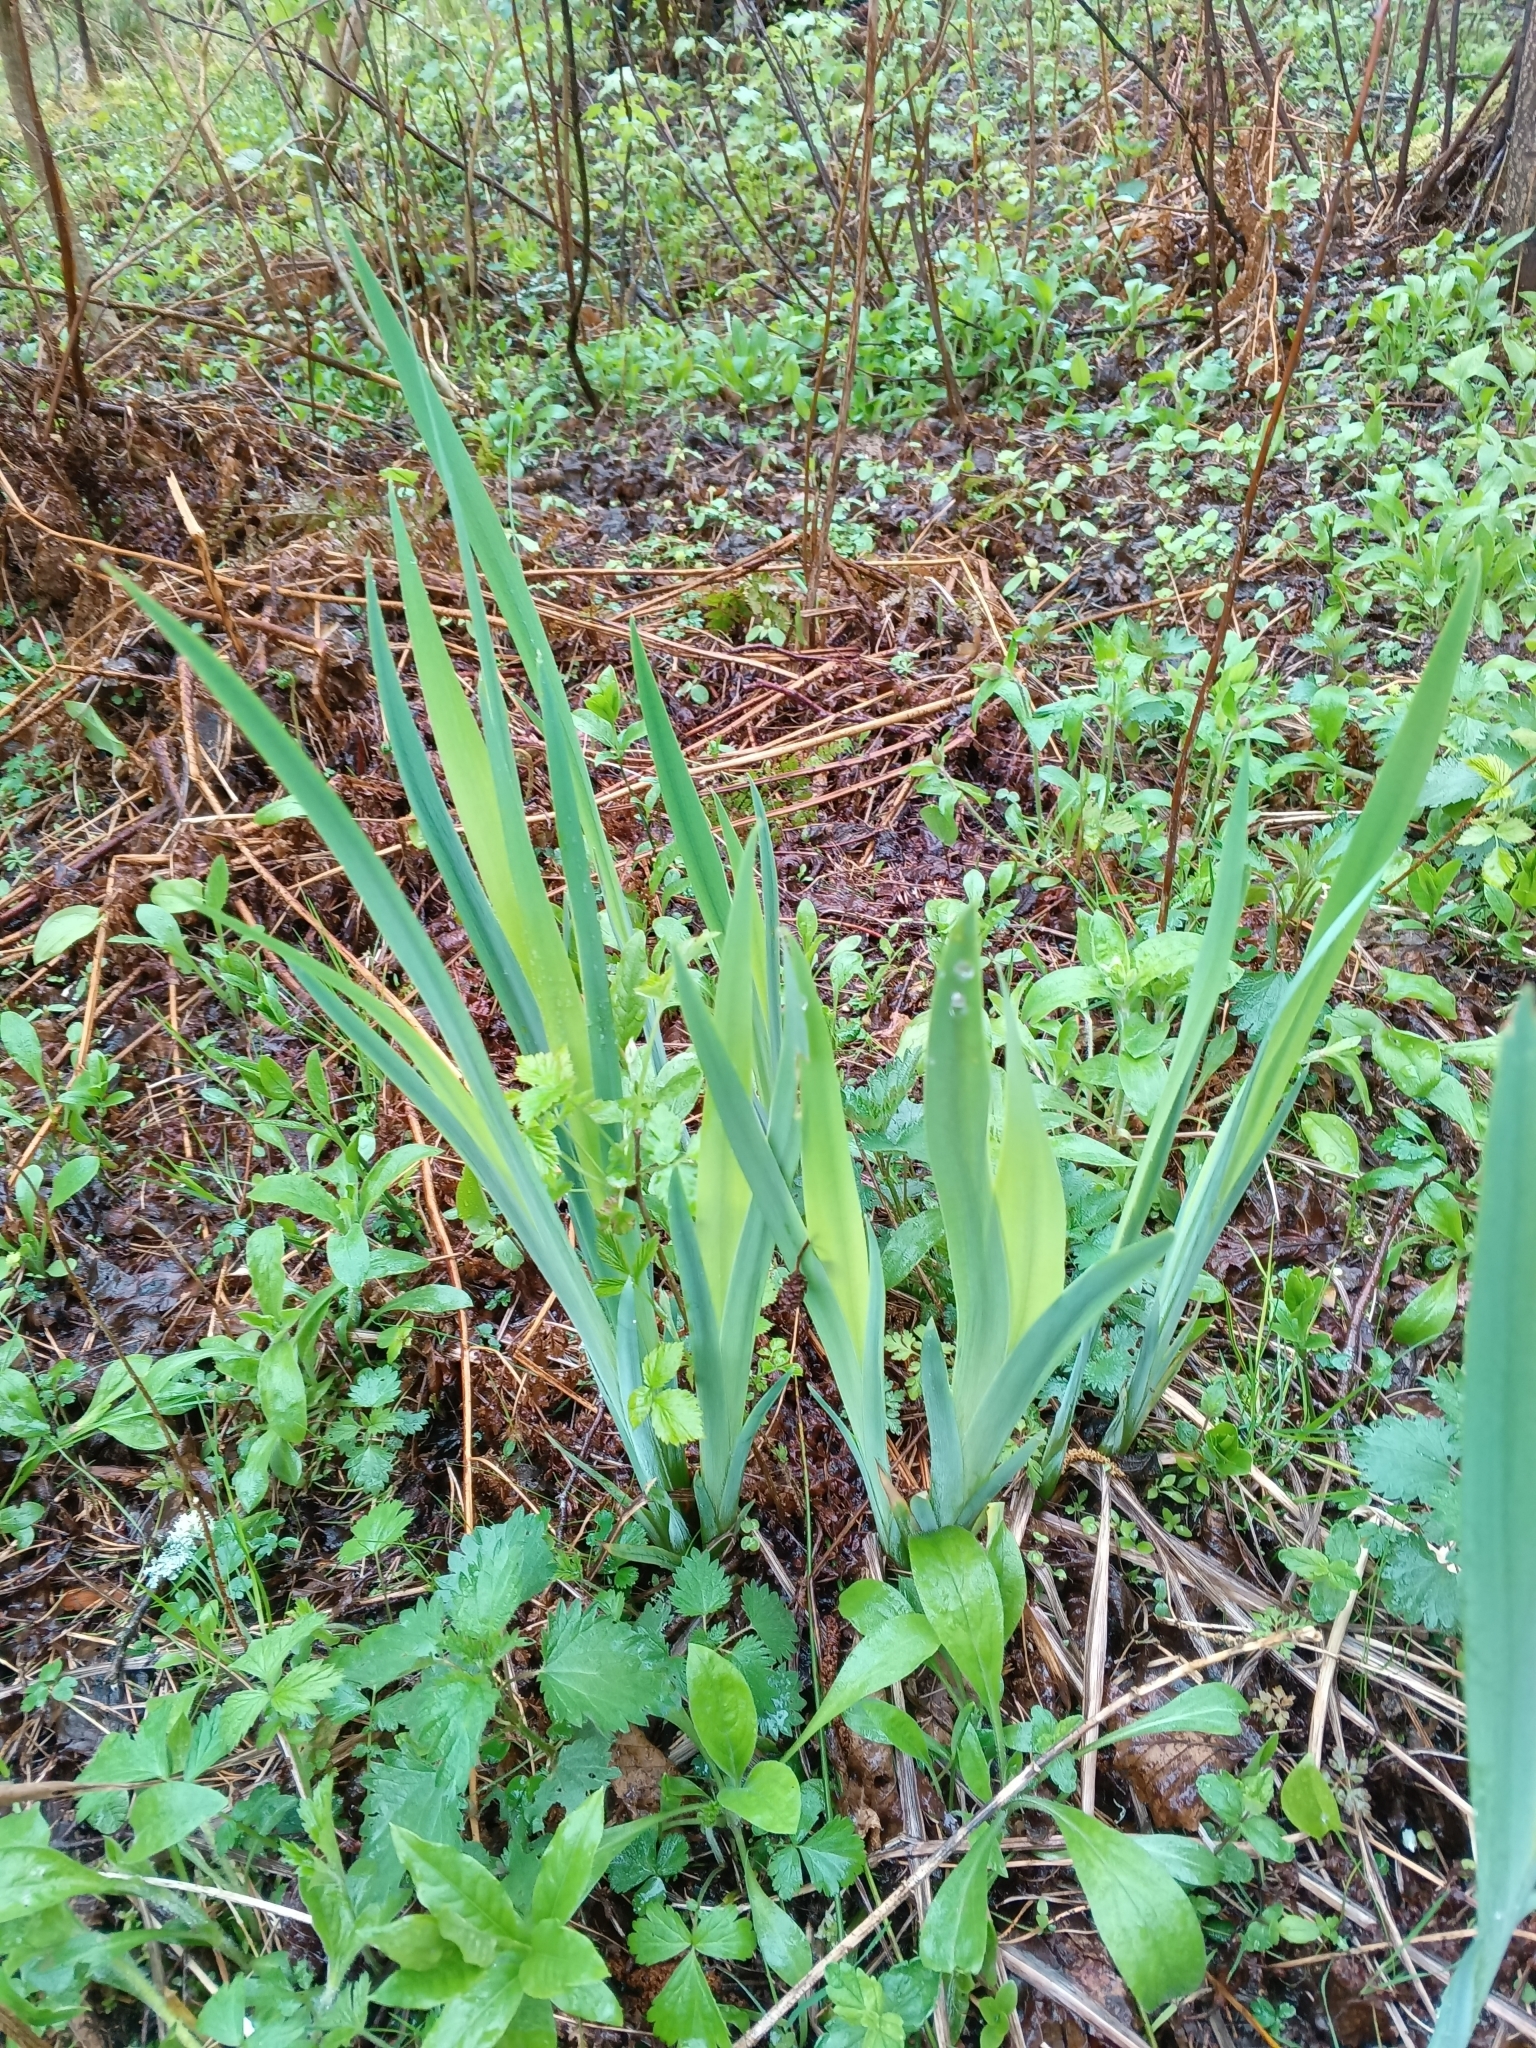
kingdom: Plantae
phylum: Tracheophyta
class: Liliopsida
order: Asparagales
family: Iridaceae
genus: Iris
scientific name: Iris pseudacorus
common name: Yellow flag
